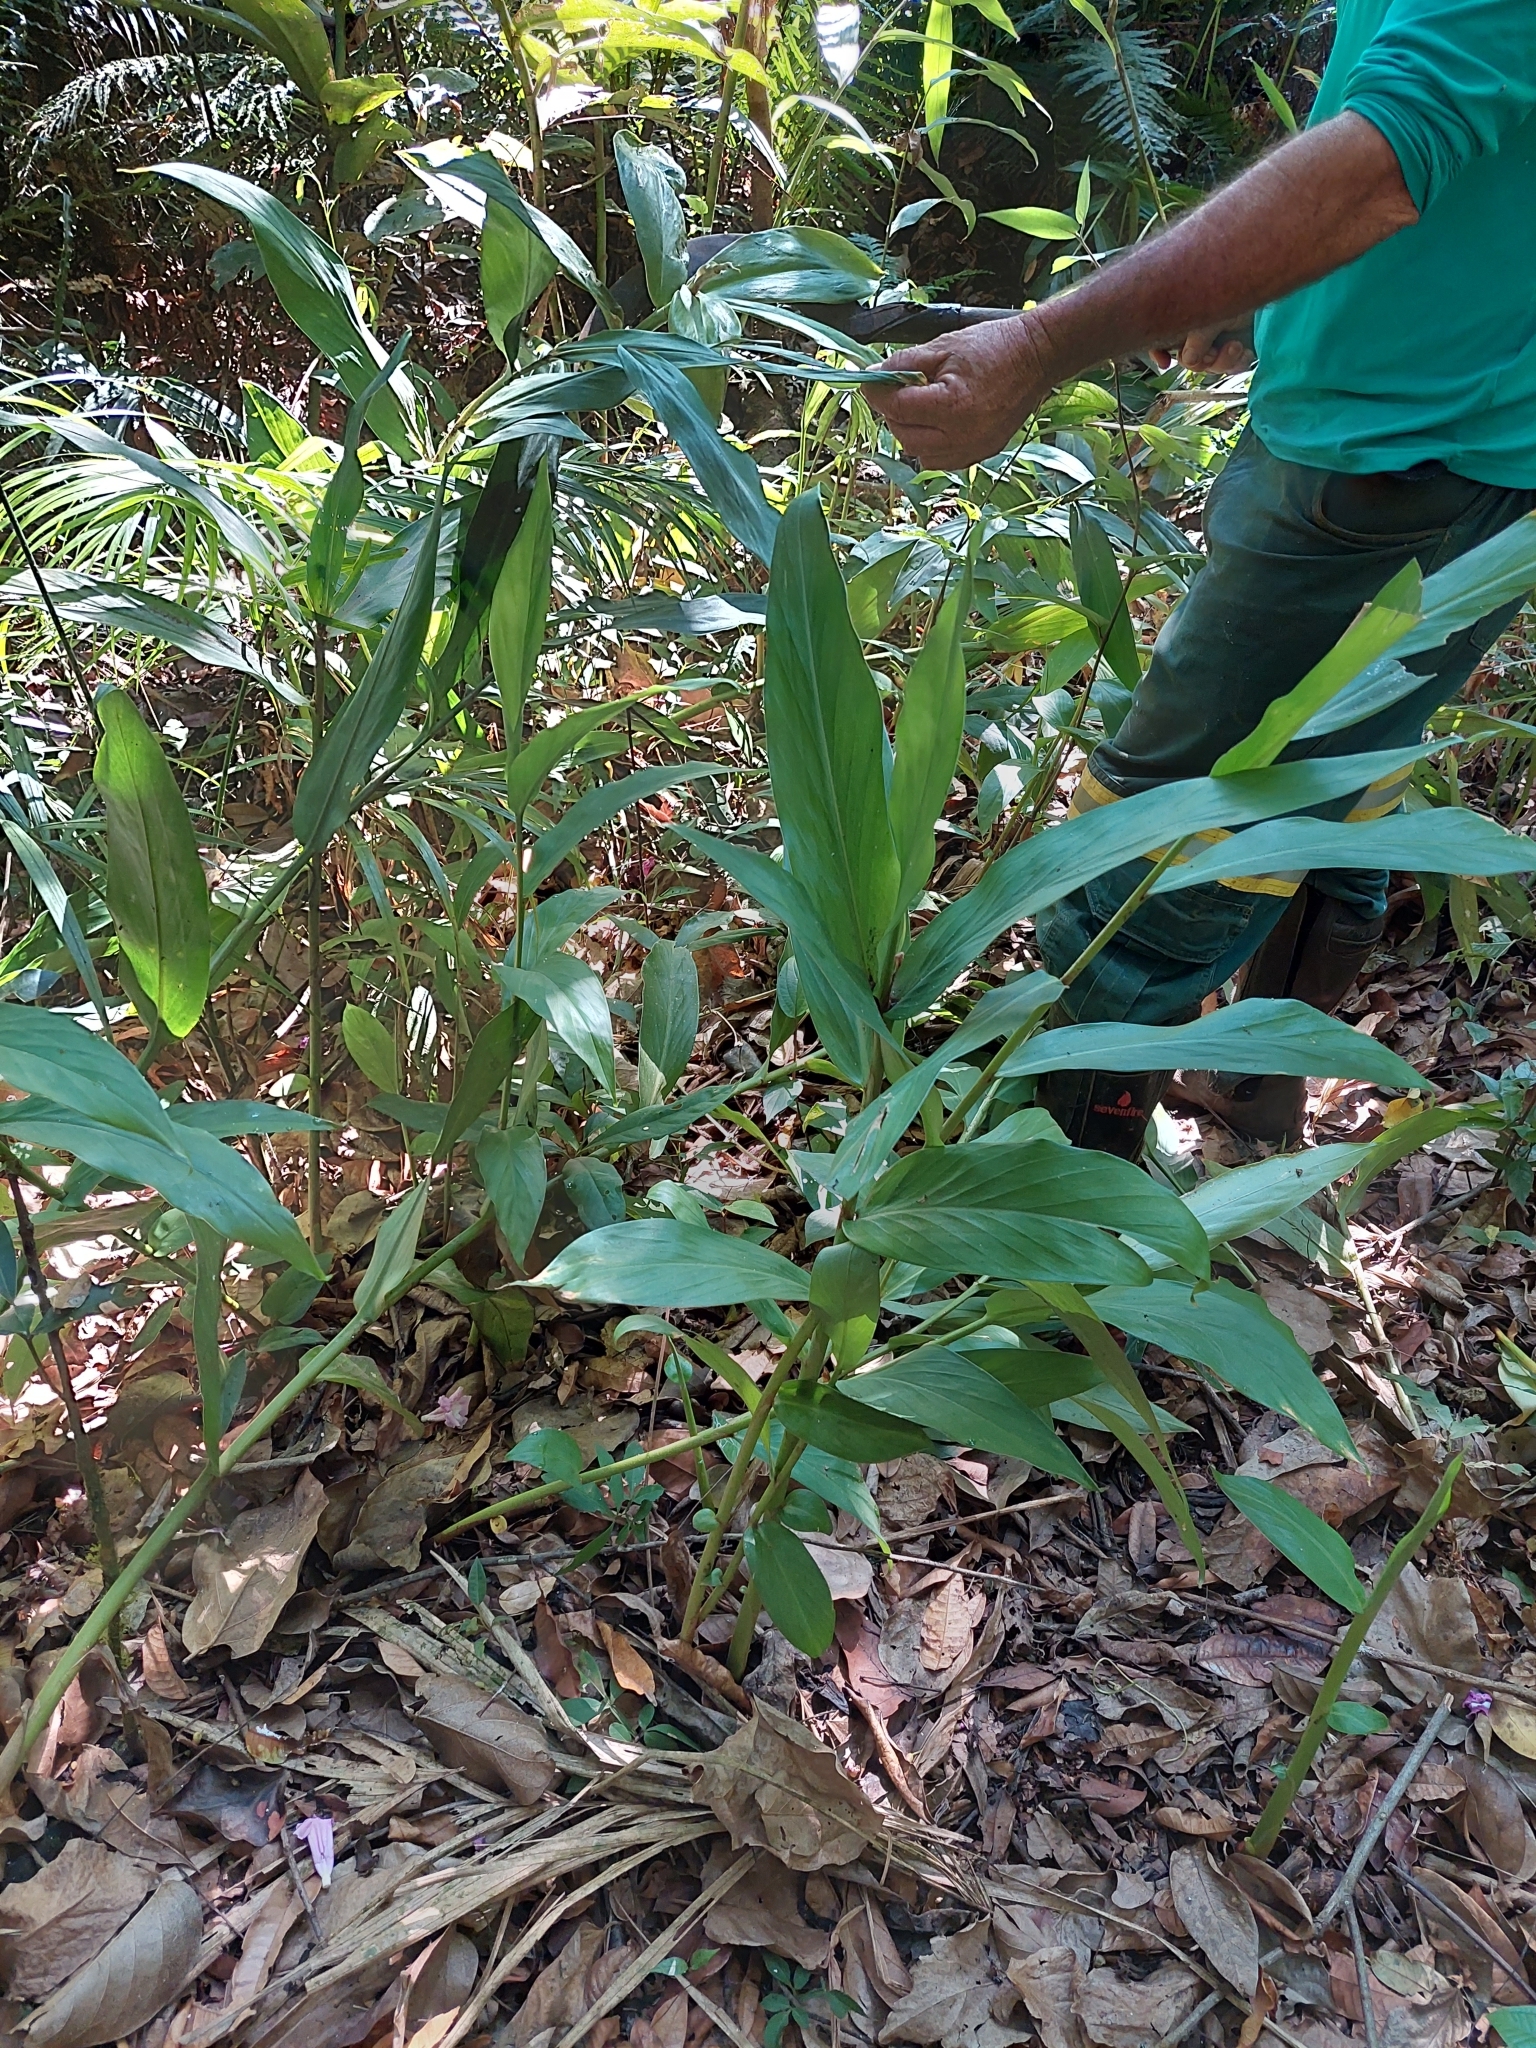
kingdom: Plantae
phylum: Tracheophyta
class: Liliopsida
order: Zingiberales
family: Zingiberaceae
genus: Hedychium
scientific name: Hedychium coronarium
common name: White garland-lily
